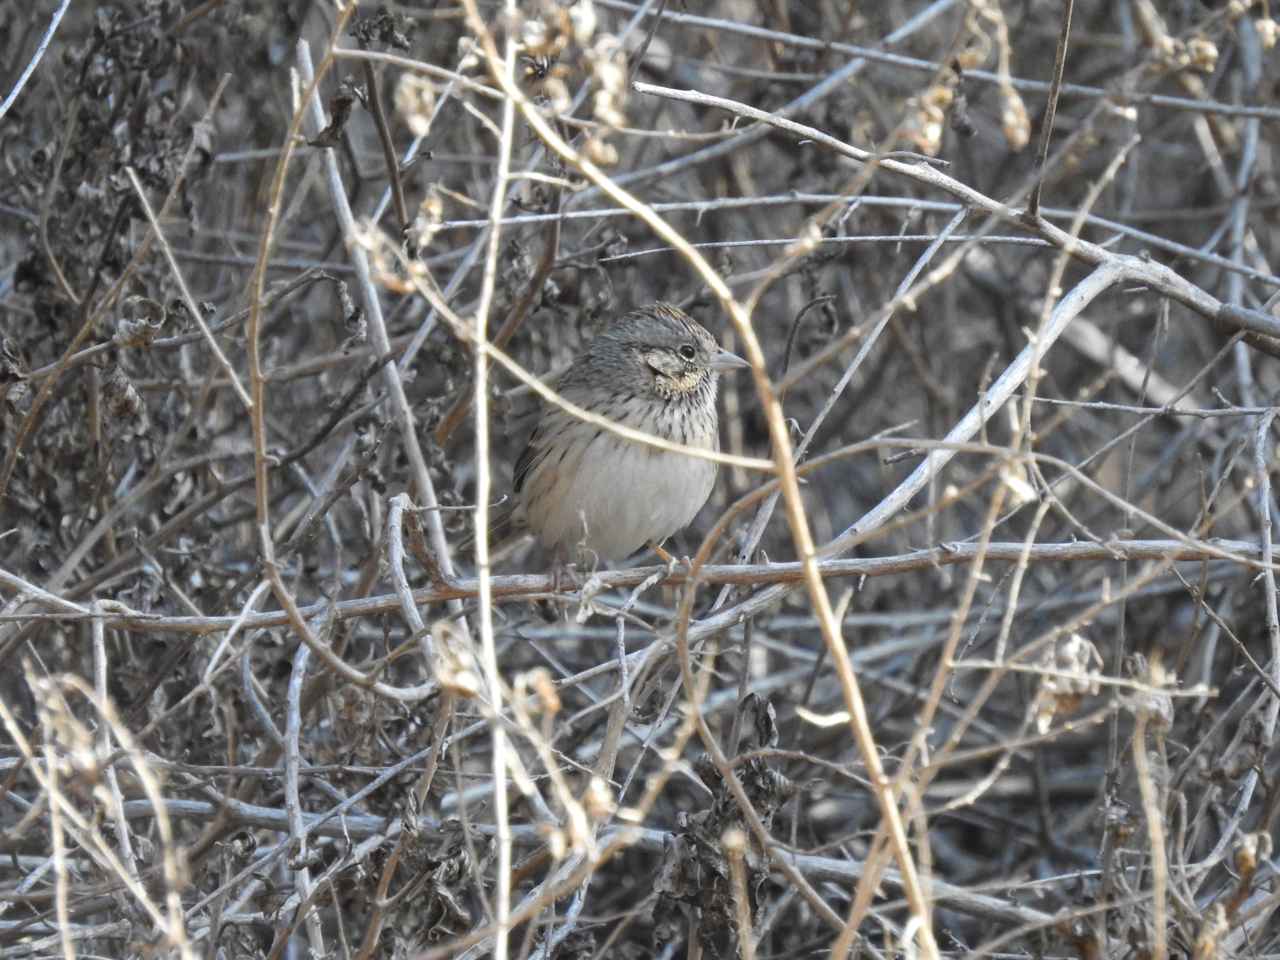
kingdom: Animalia
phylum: Chordata
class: Aves
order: Passeriformes
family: Passerellidae
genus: Melospiza
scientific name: Melospiza lincolnii
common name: Lincoln's sparrow
